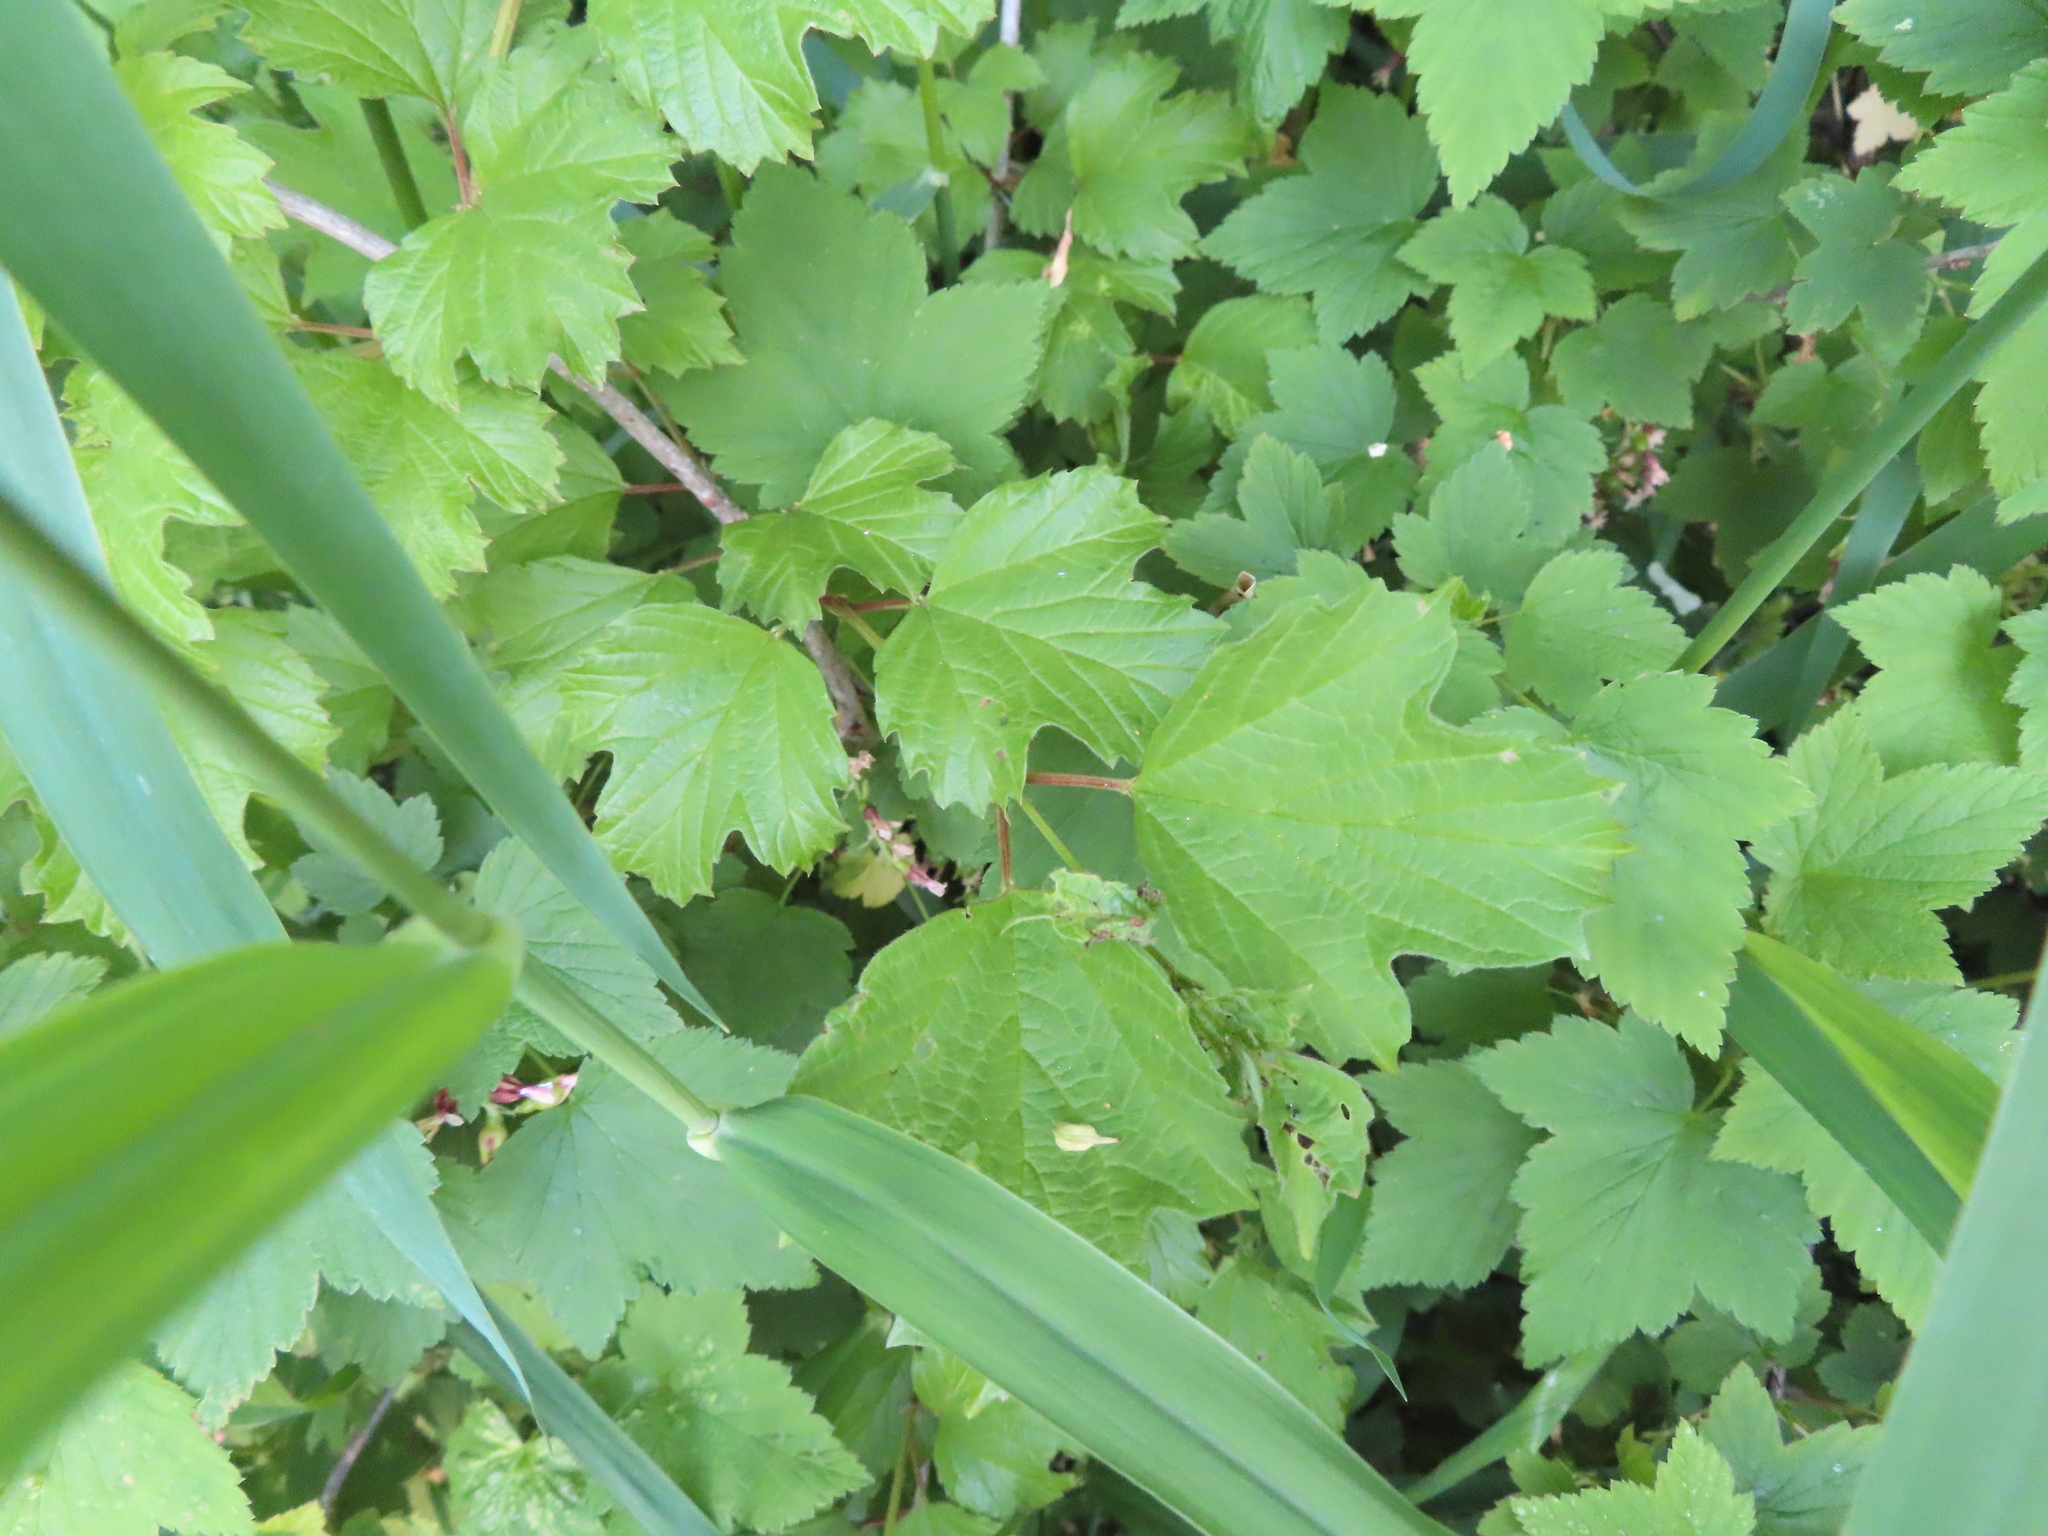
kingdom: Plantae
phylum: Tracheophyta
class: Magnoliopsida
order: Dipsacales
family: Viburnaceae
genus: Viburnum
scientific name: Viburnum opulus
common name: Guelder-rose
